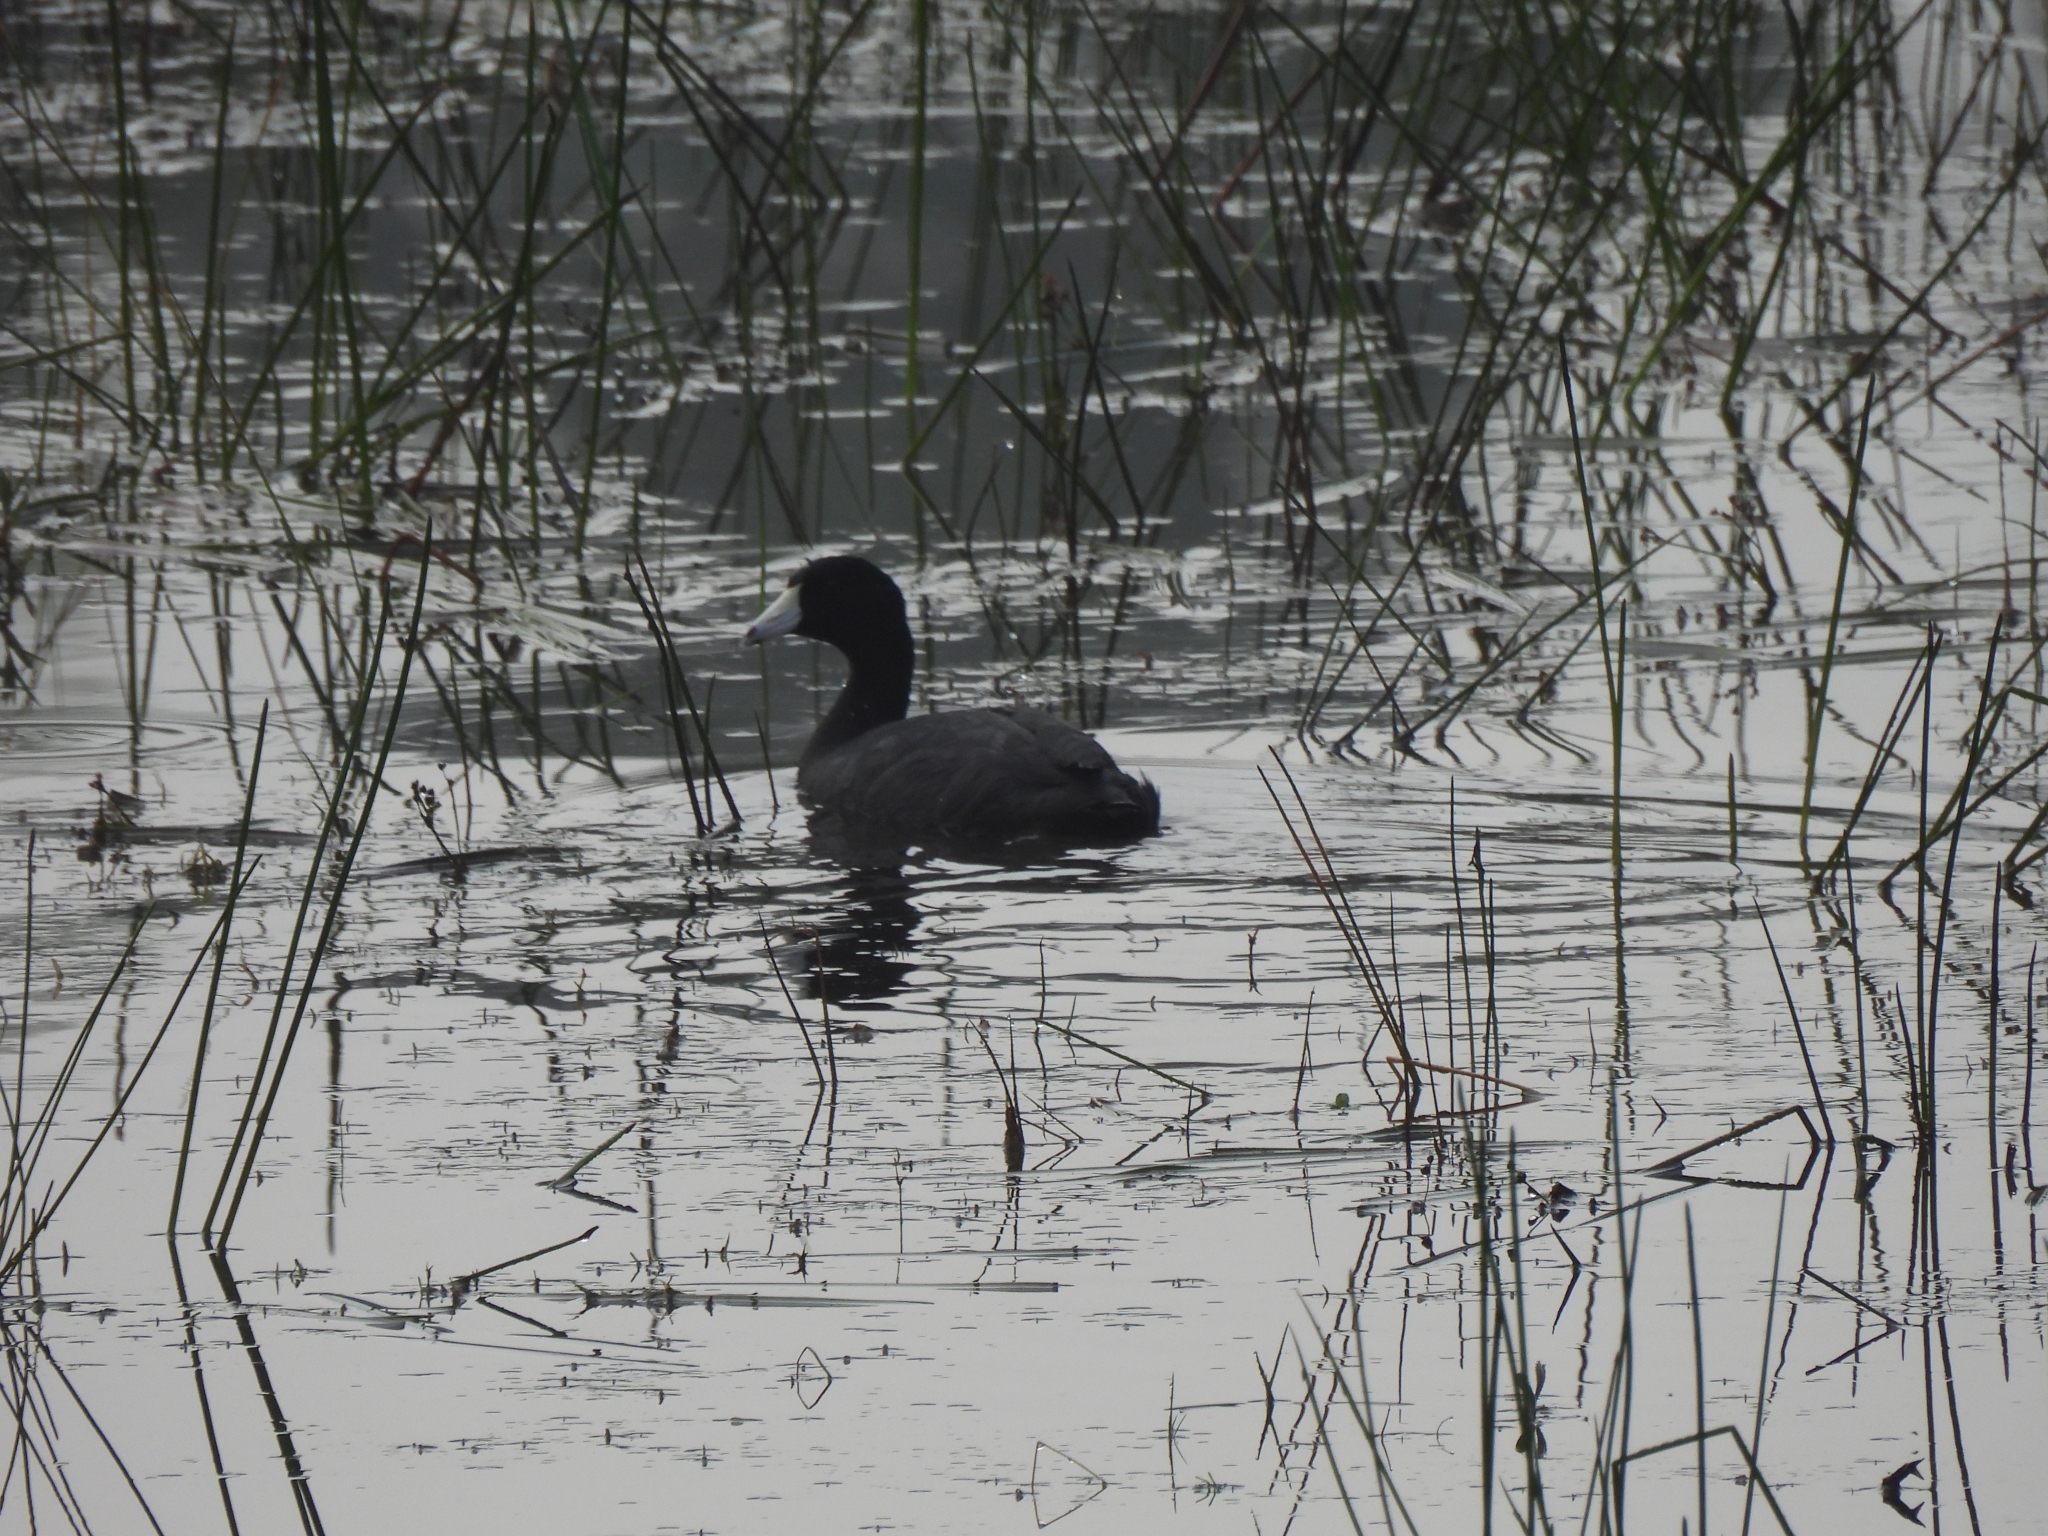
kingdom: Animalia
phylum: Chordata
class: Aves
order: Gruiformes
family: Rallidae
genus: Fulica
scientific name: Fulica americana
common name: American coot
